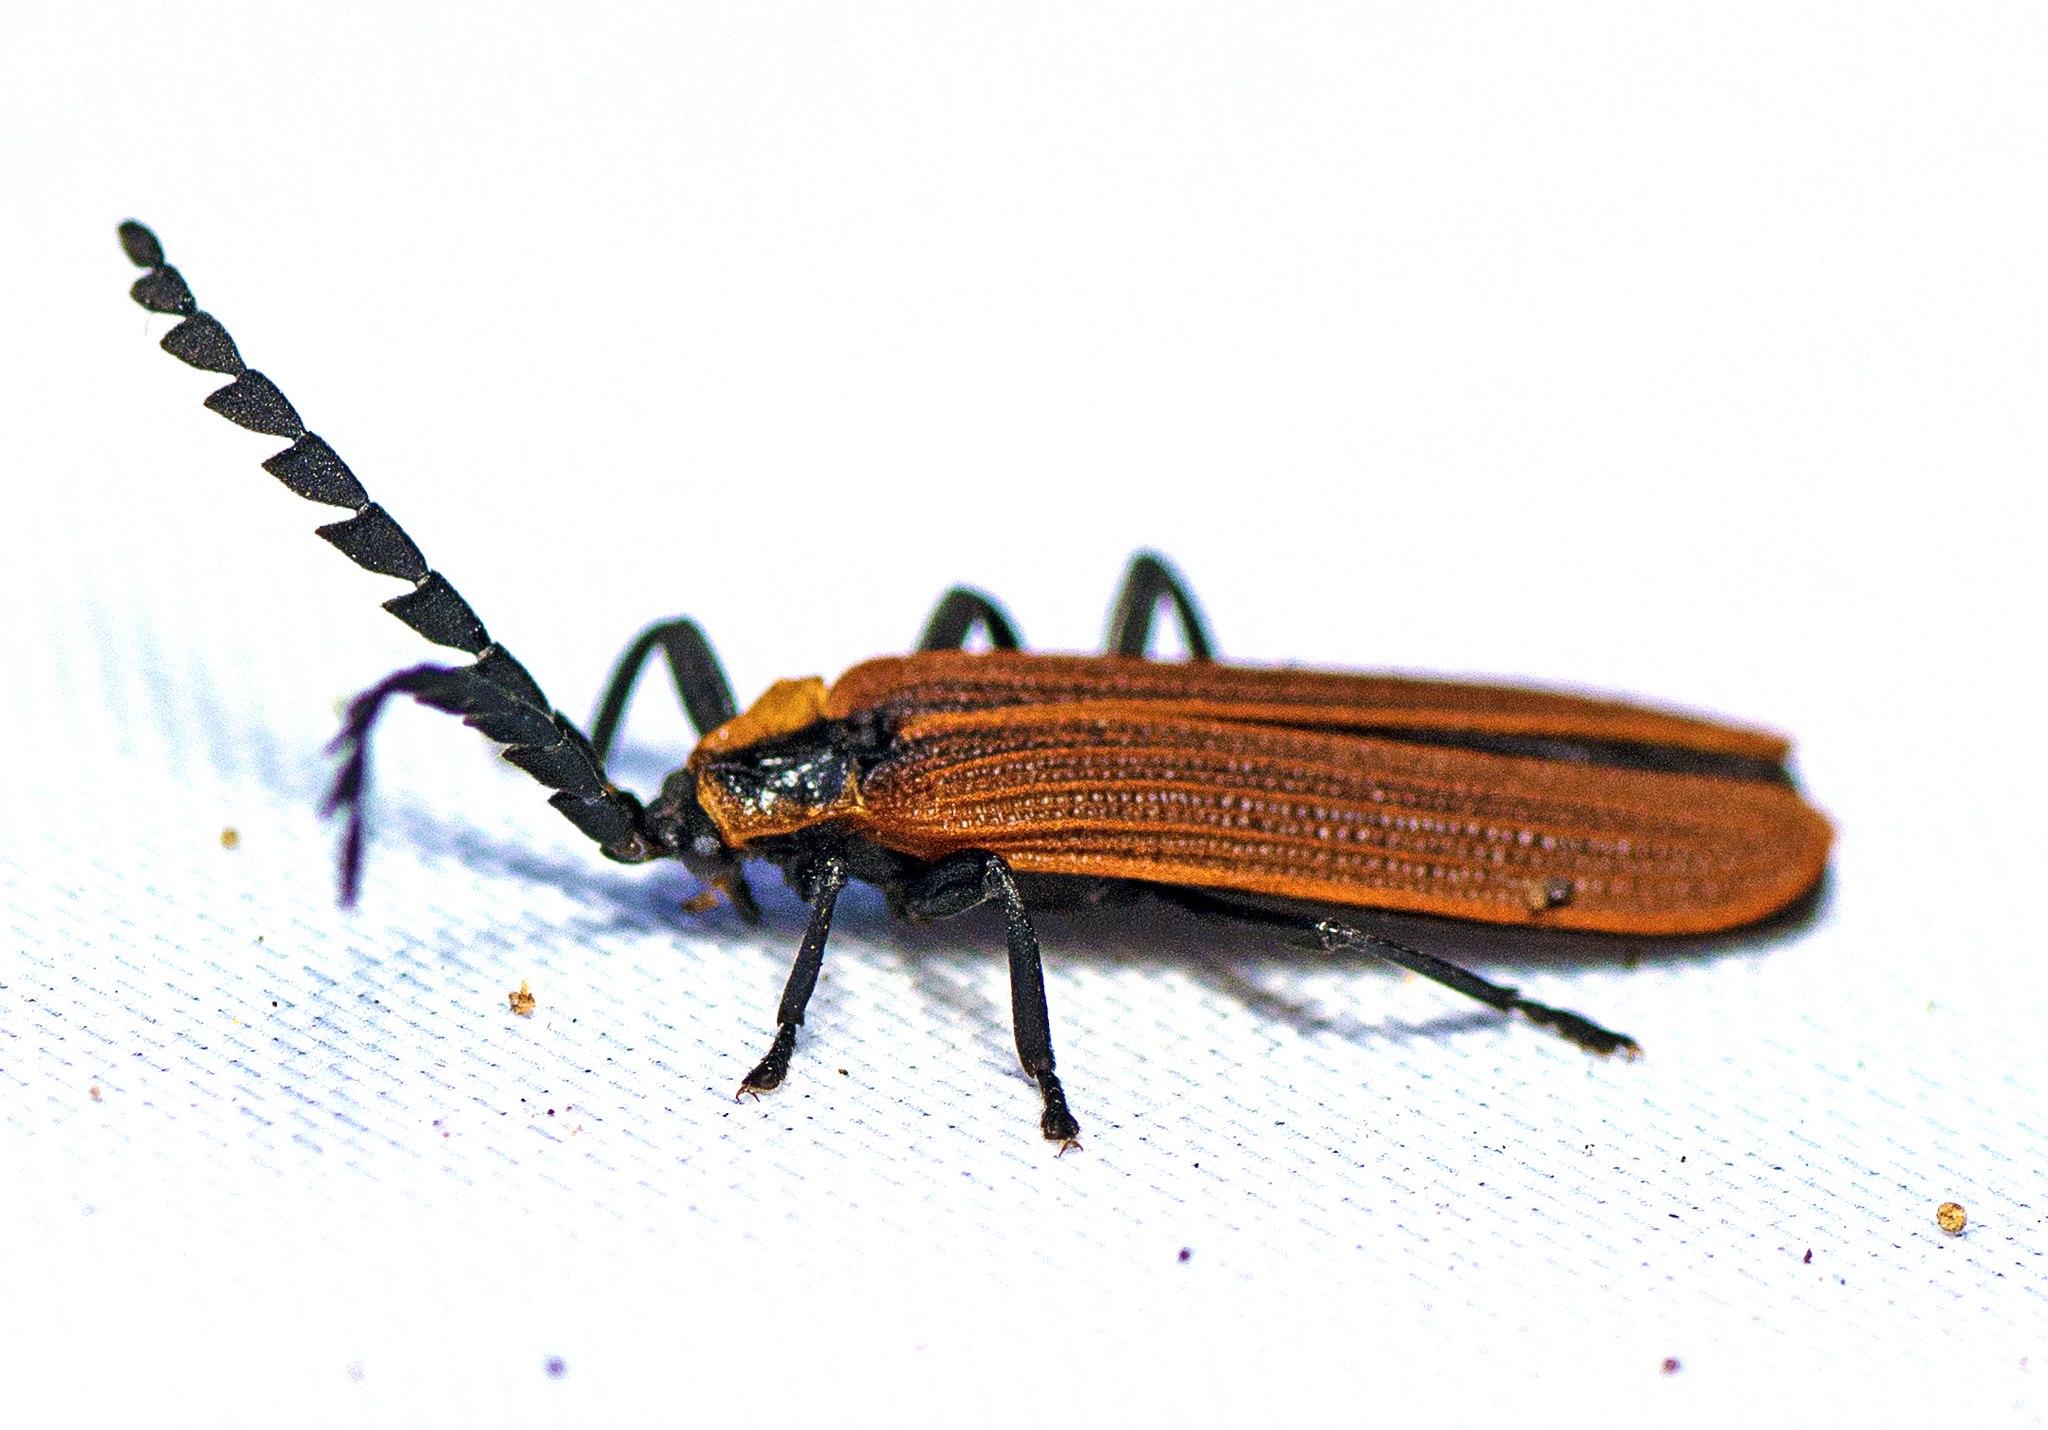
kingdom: Animalia
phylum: Arthropoda
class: Insecta
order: Coleoptera
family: Lycidae
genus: Trichalus
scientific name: Trichalus
